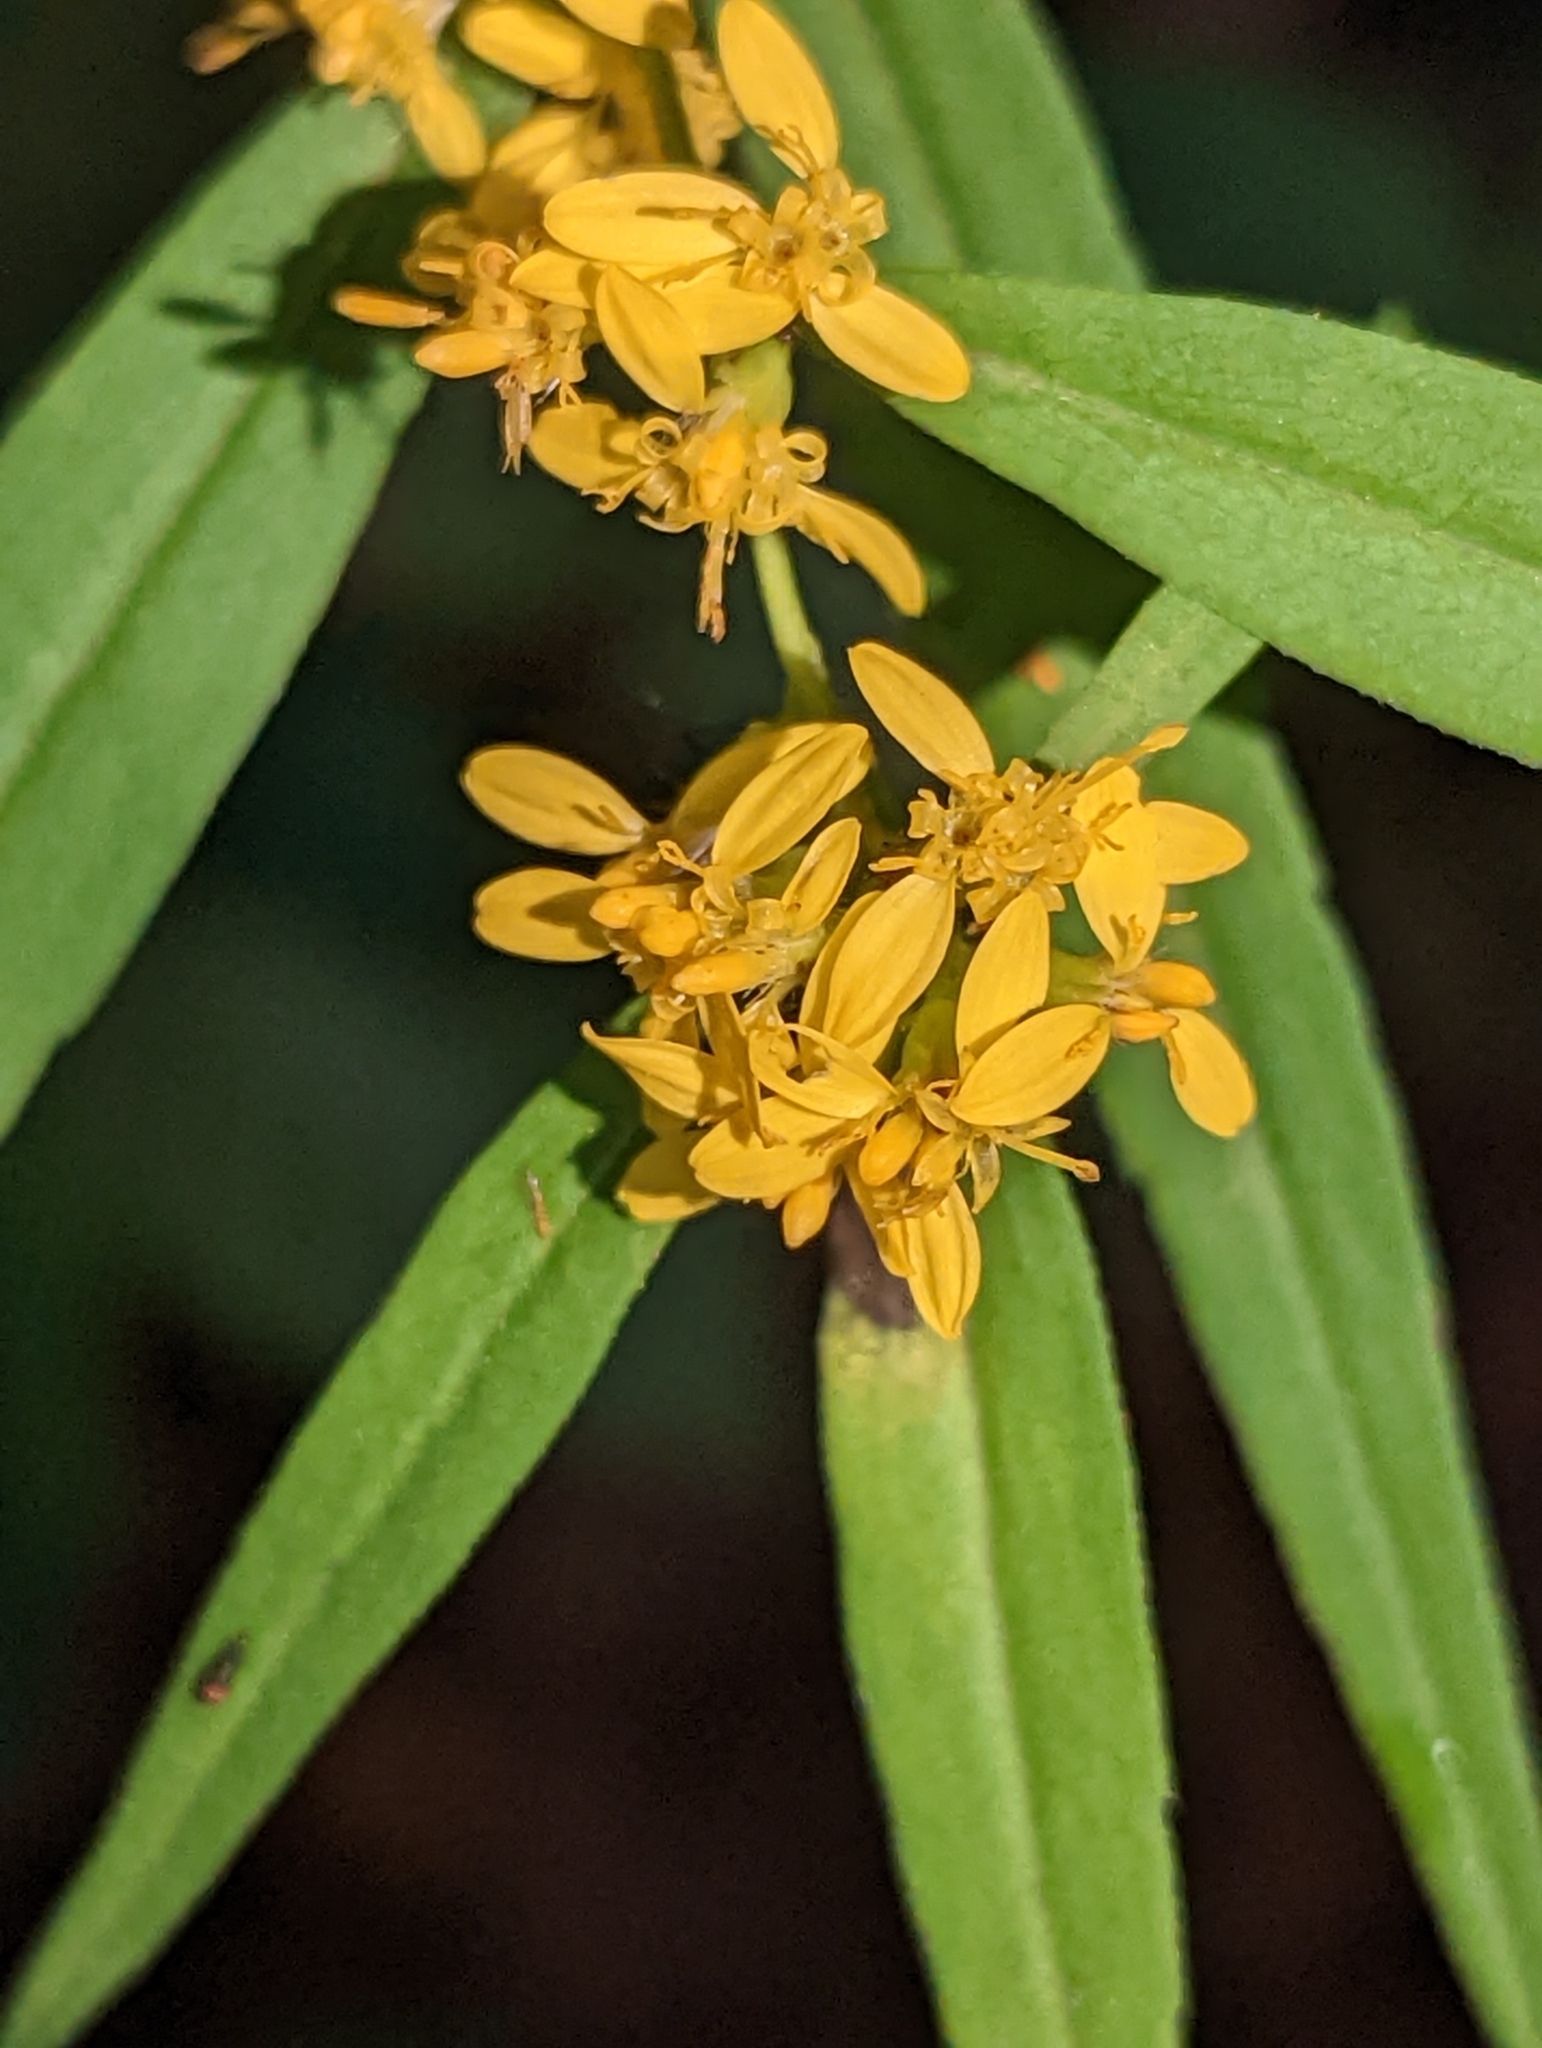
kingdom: Plantae
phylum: Tracheophyta
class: Magnoliopsida
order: Asterales
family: Asteraceae
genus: Solidago
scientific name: Solidago caesia
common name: Woodland goldenrod
